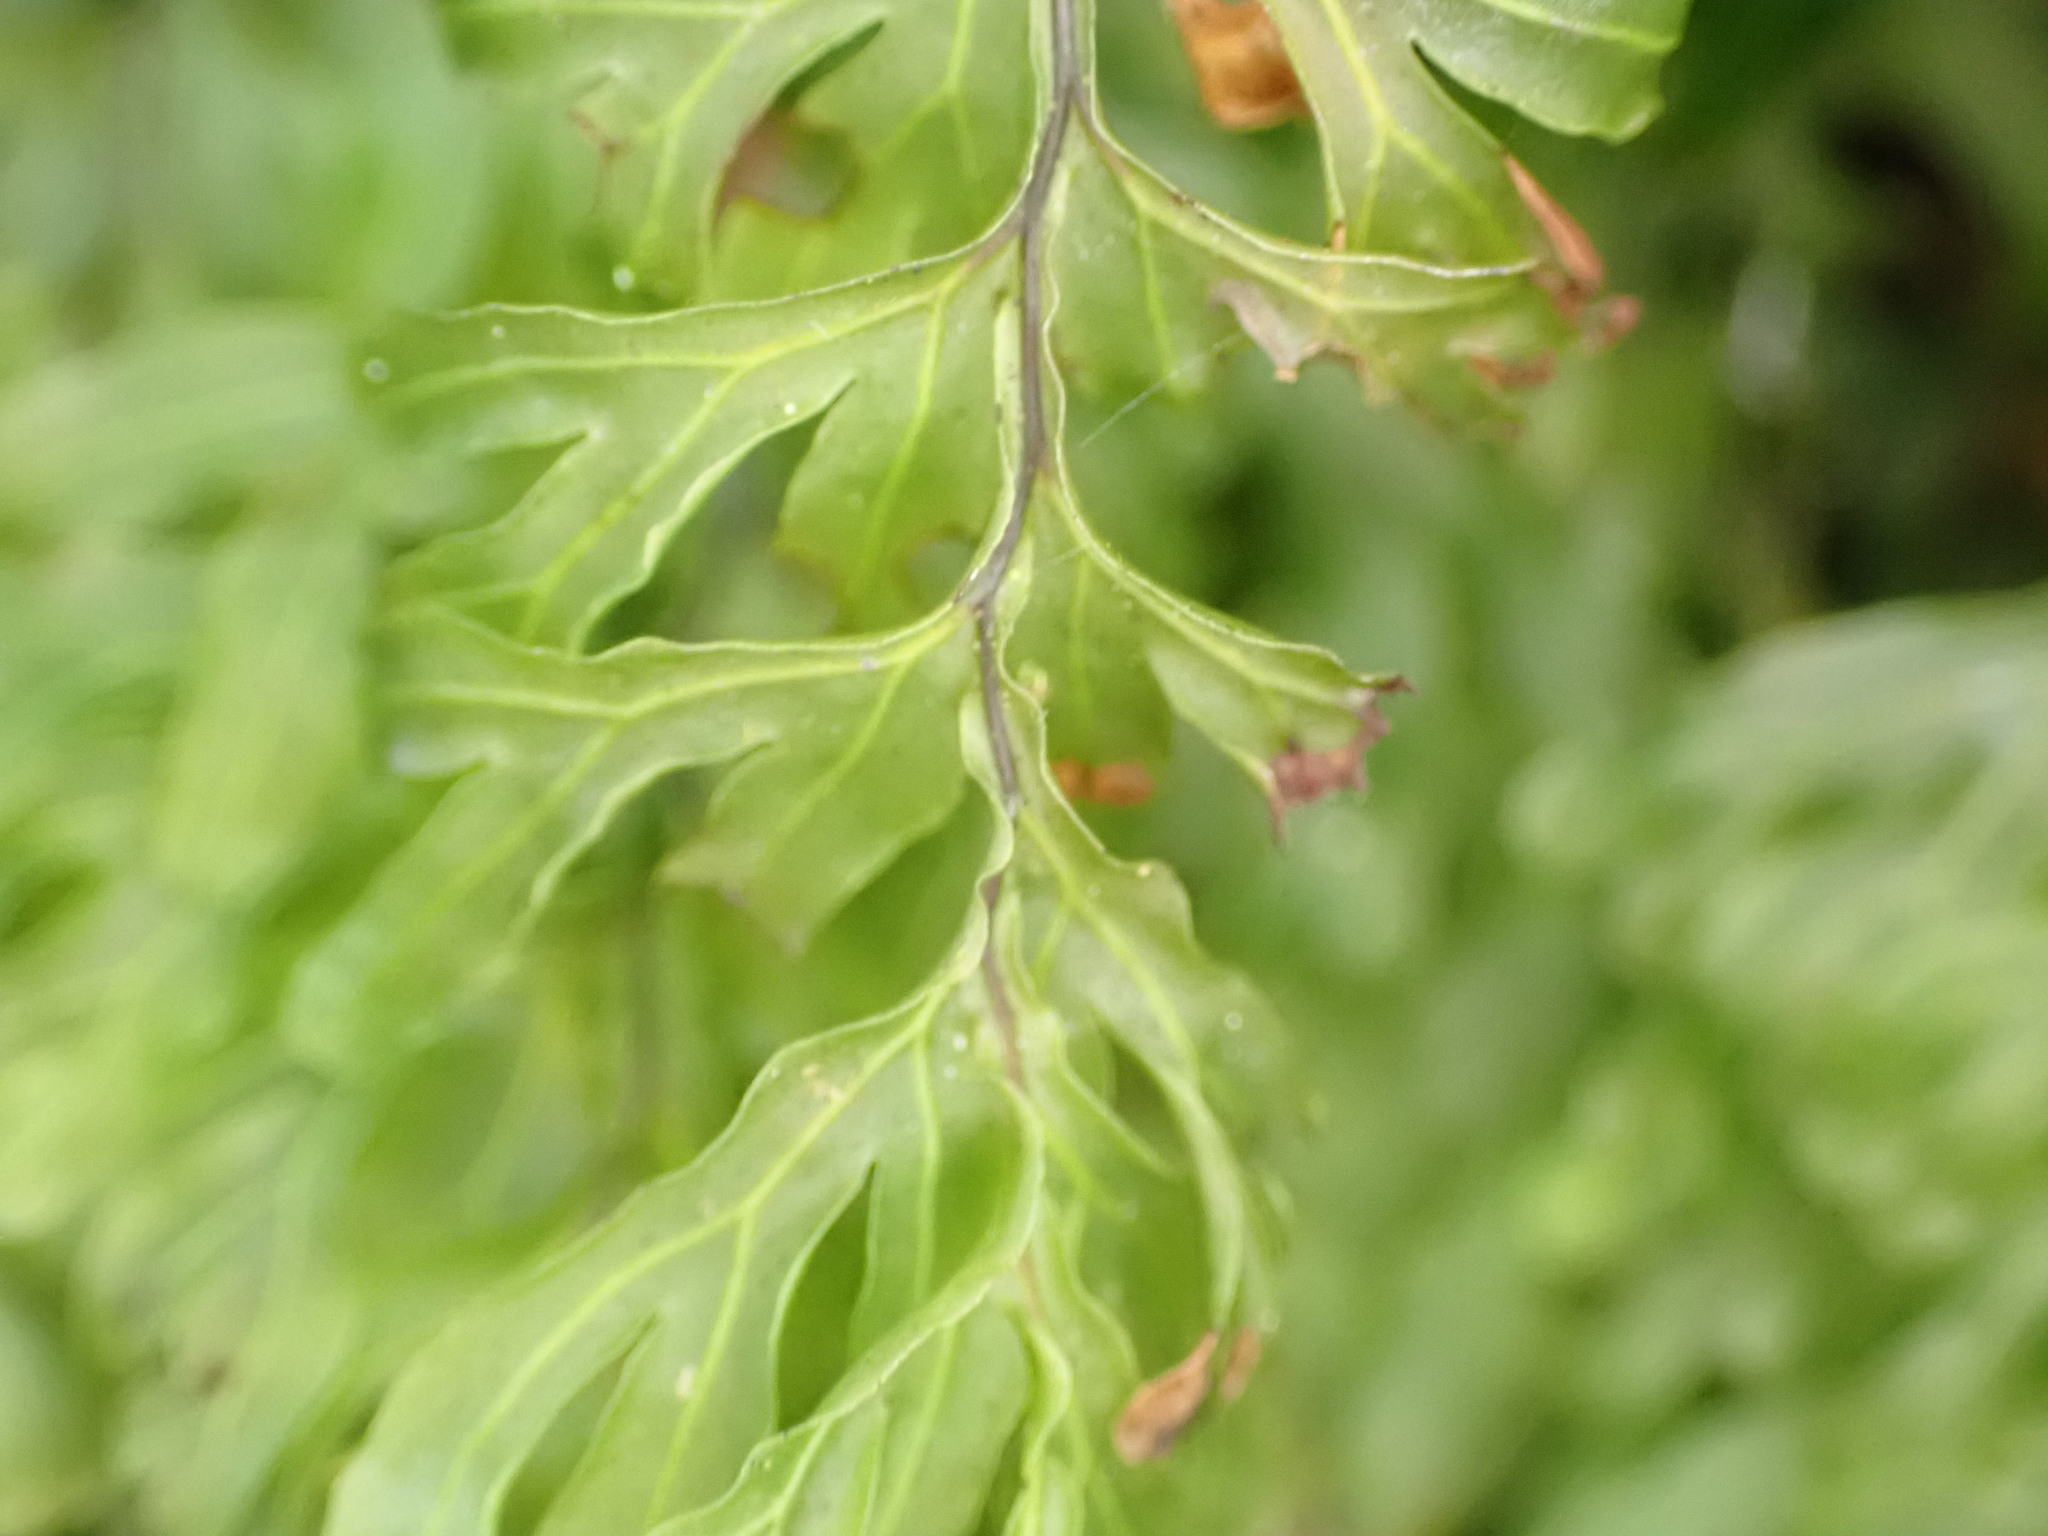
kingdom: Plantae
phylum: Tracheophyta
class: Polypodiopsida
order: Hymenophyllales
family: Hymenophyllaceae
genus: Hymenophyllum
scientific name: Hymenophyllum rarum
